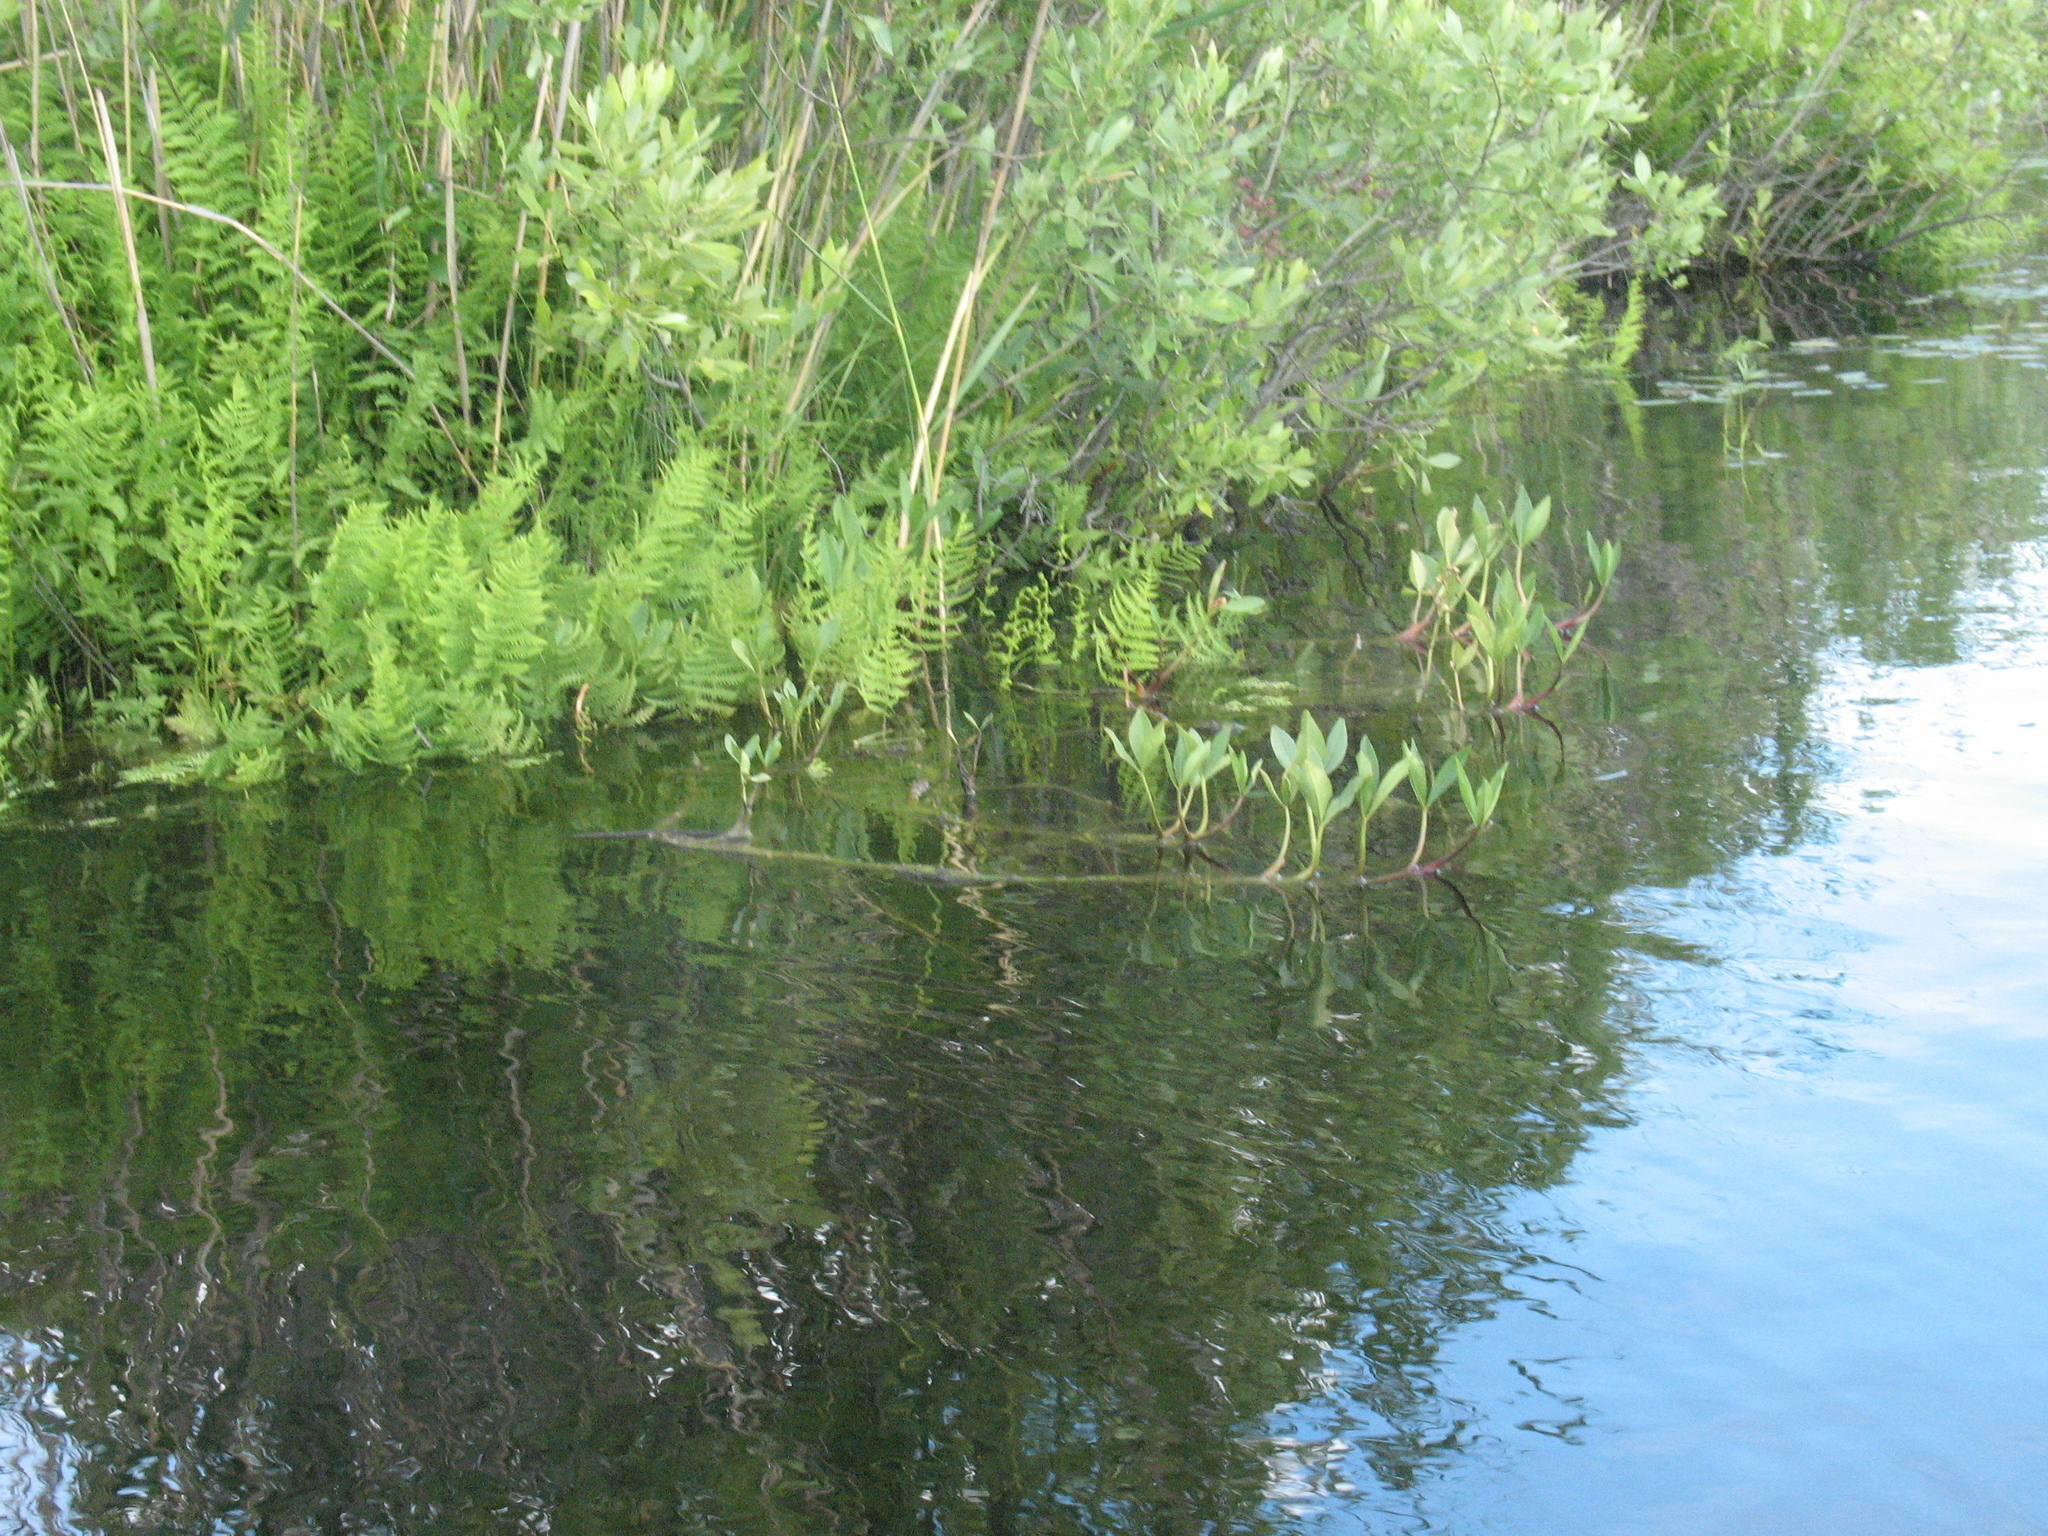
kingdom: Plantae
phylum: Tracheophyta
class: Magnoliopsida
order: Asterales
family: Menyanthaceae
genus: Menyanthes
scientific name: Menyanthes trifoliata
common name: Bogbean
